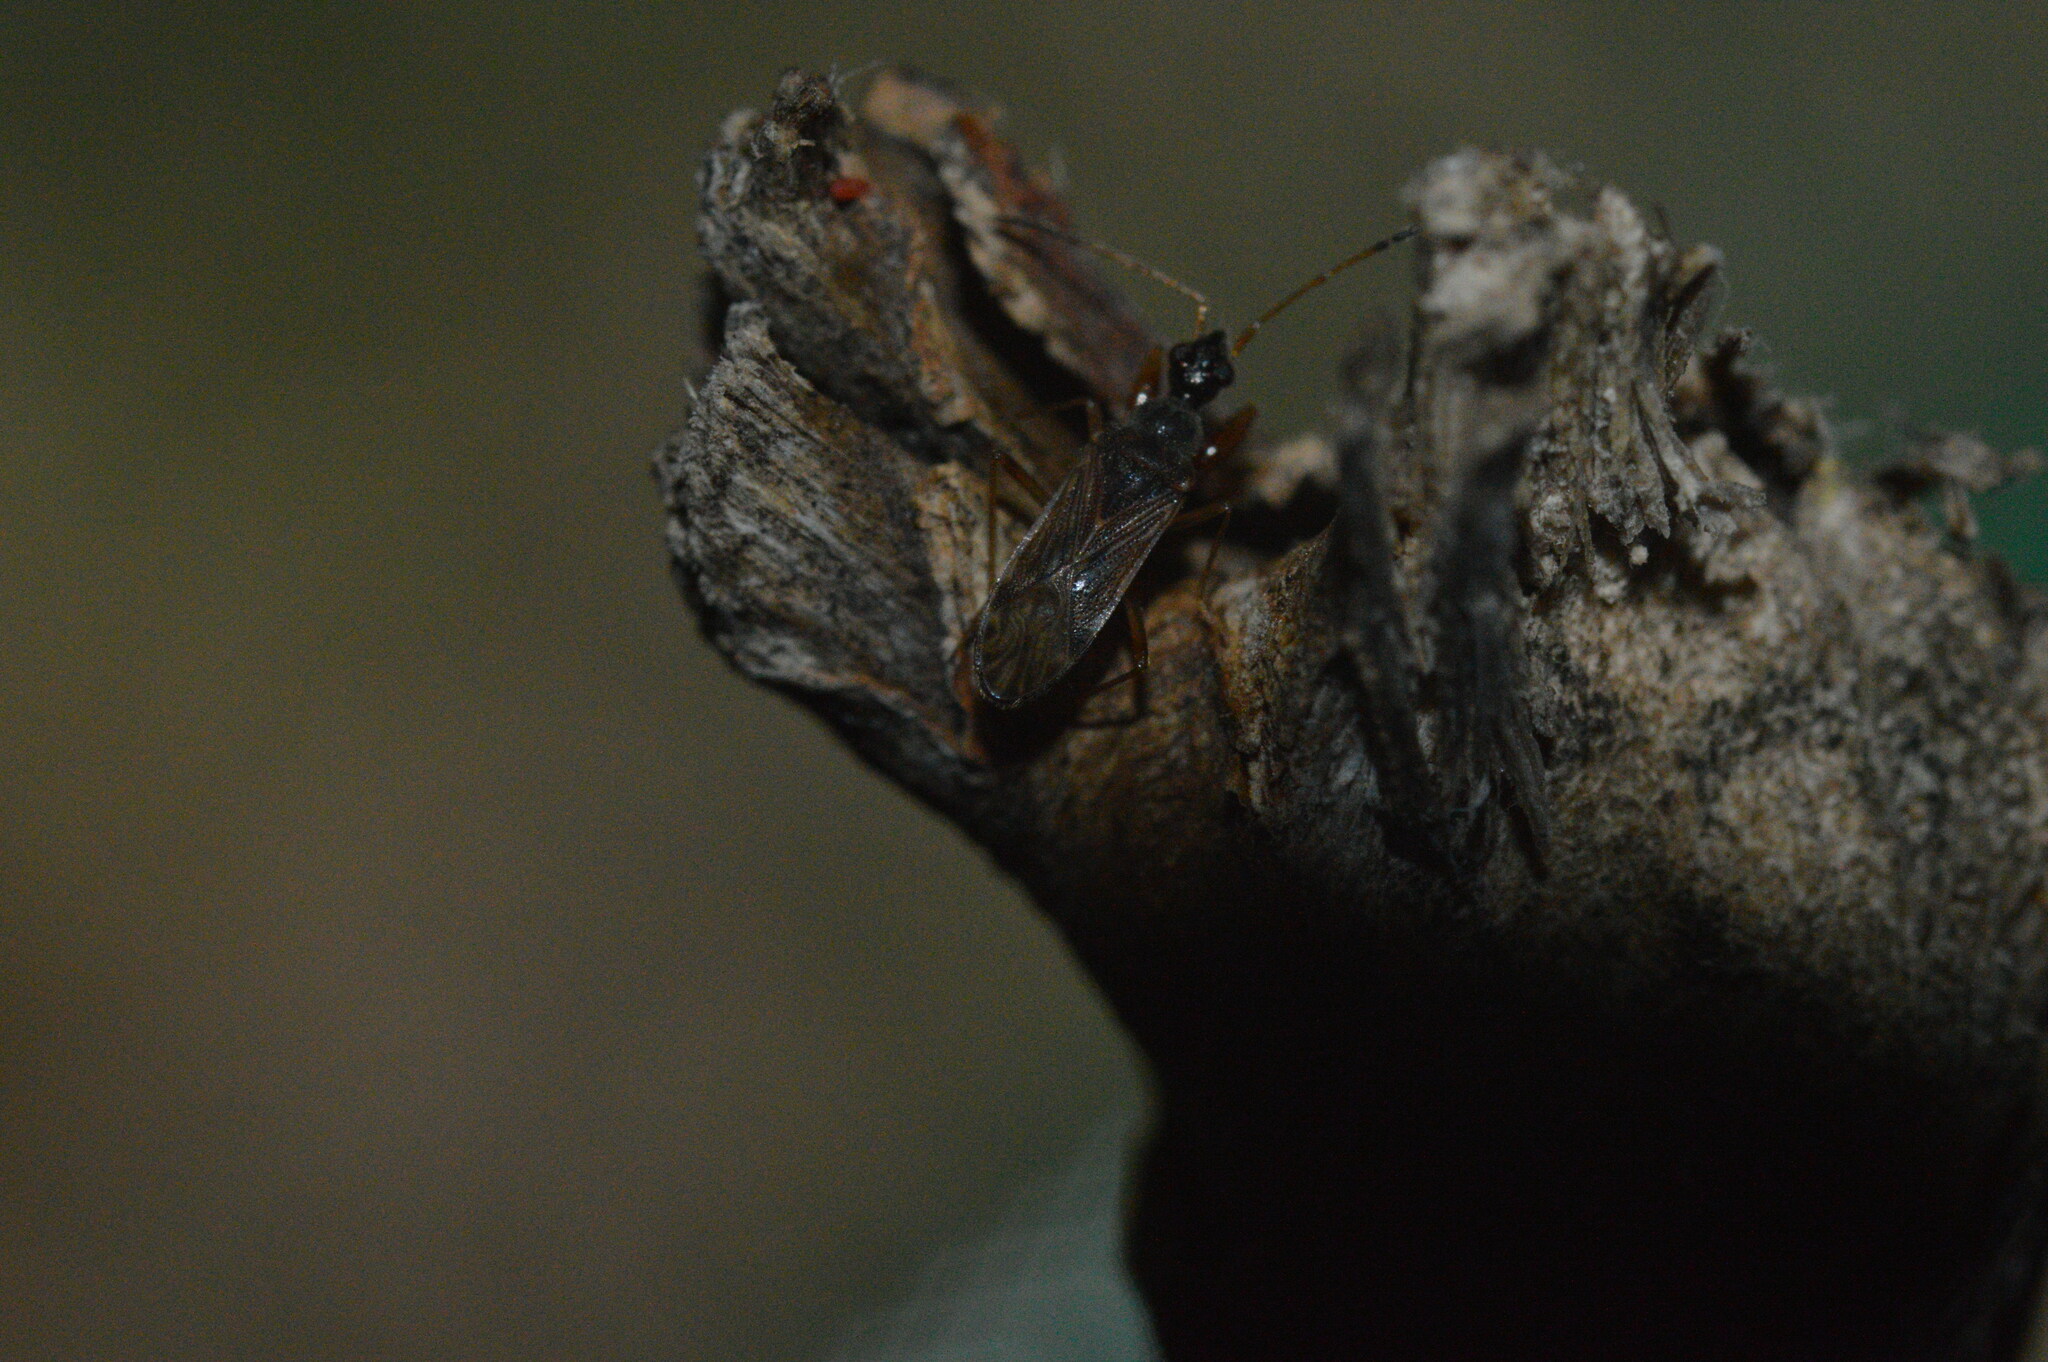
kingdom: Animalia
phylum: Arthropoda
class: Insecta
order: Hemiptera
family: Rhyparochromidae
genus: Heraeus
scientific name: Heraeus plebejus
